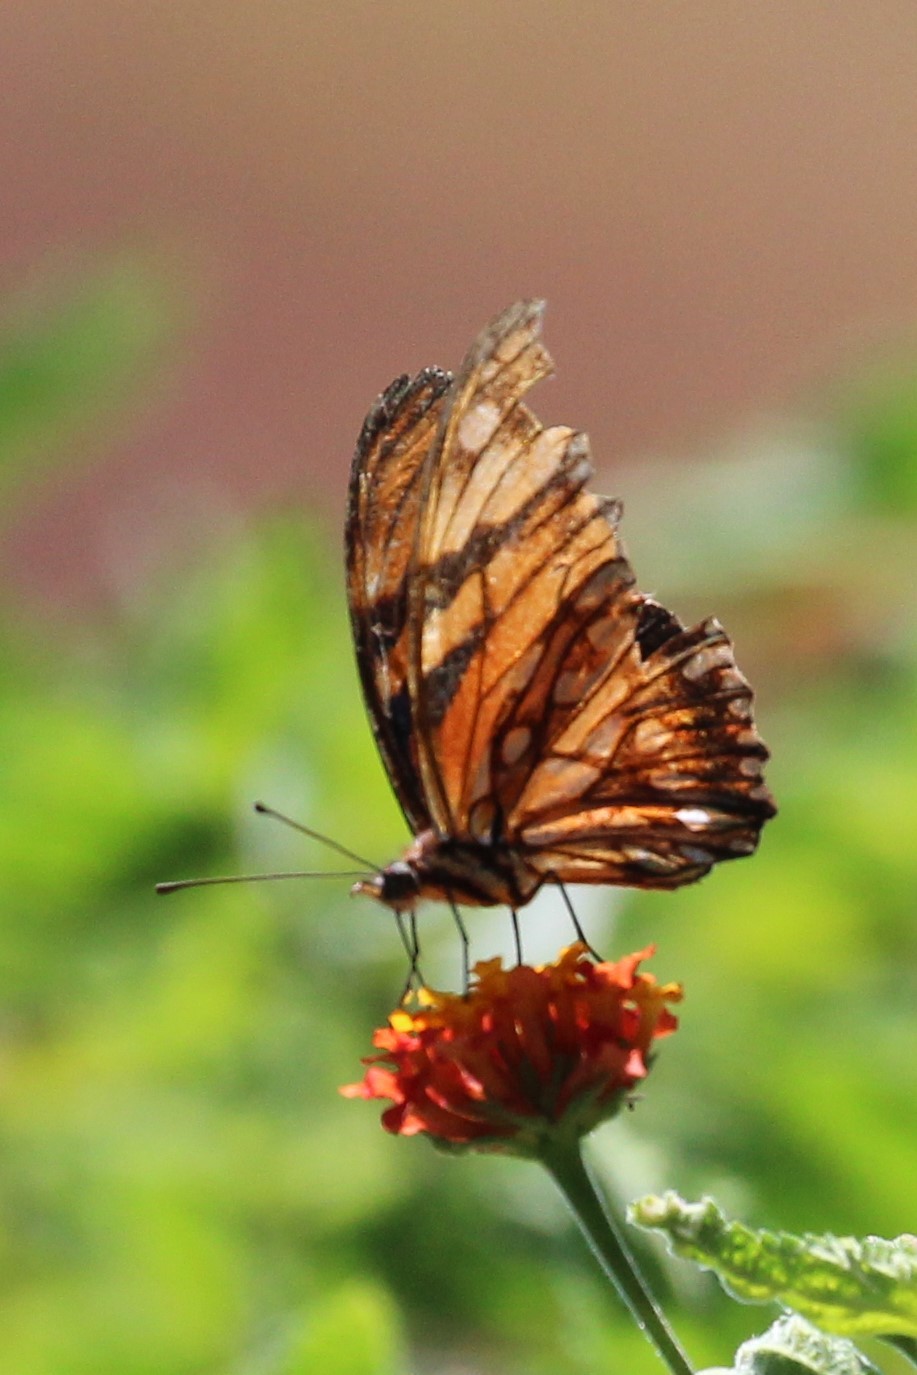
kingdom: Animalia
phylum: Arthropoda
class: Insecta
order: Lepidoptera
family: Nymphalidae
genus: Dione
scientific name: Dione juno
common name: Juno silverspot
